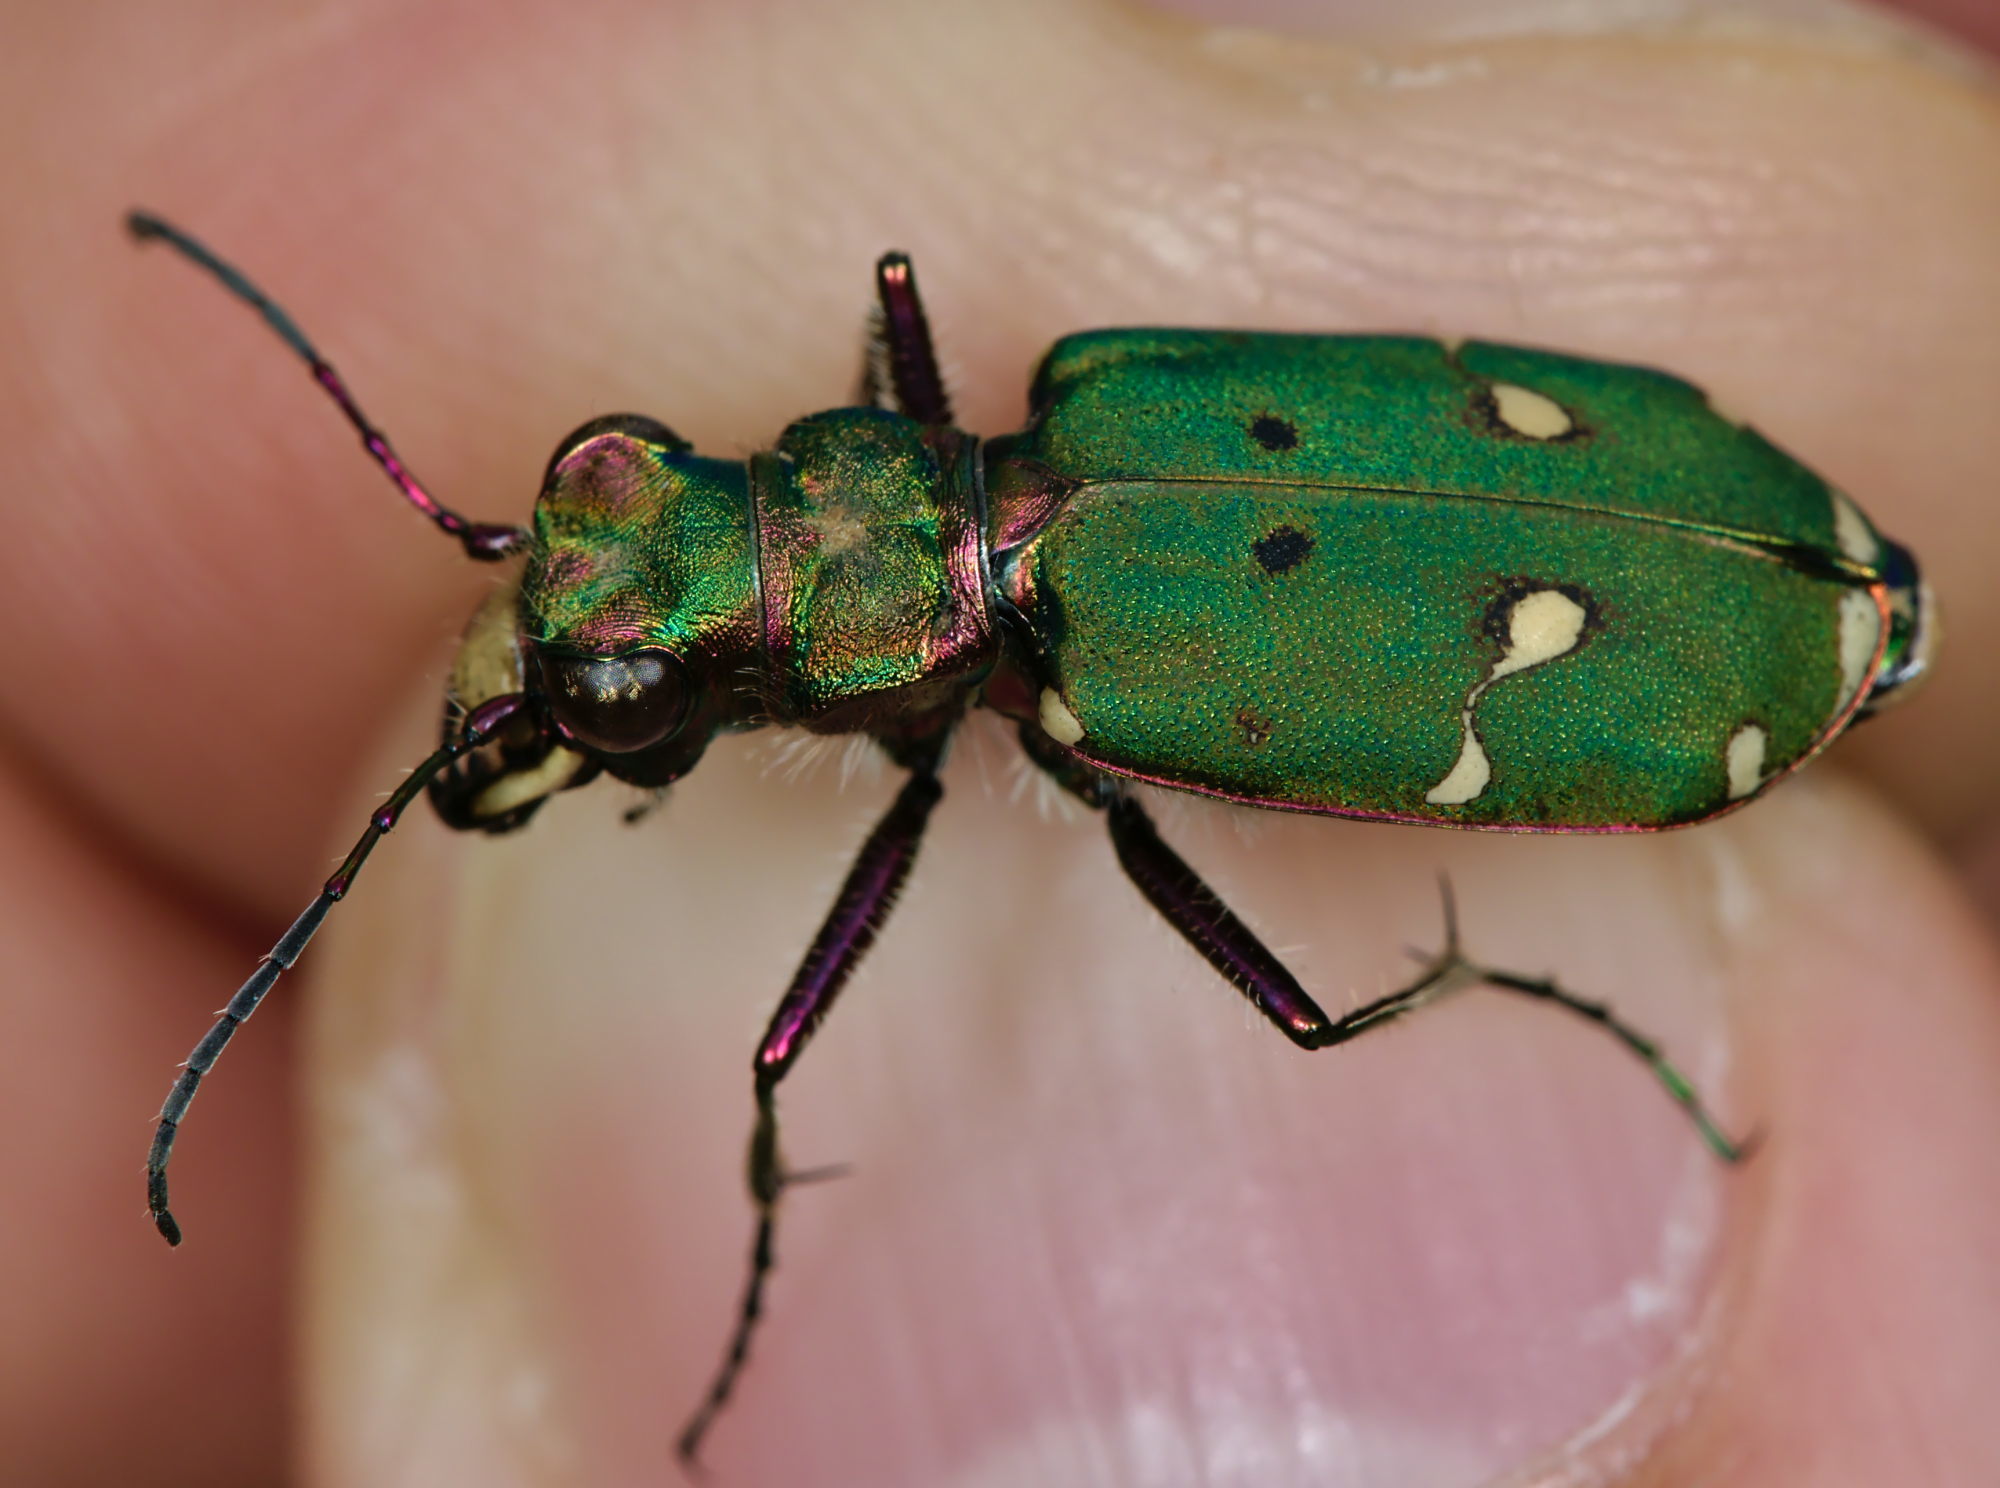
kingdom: Animalia
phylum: Arthropoda
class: Insecta
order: Coleoptera
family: Carabidae
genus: Cicindela
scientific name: Cicindela campestris
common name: Common tiger beetle
